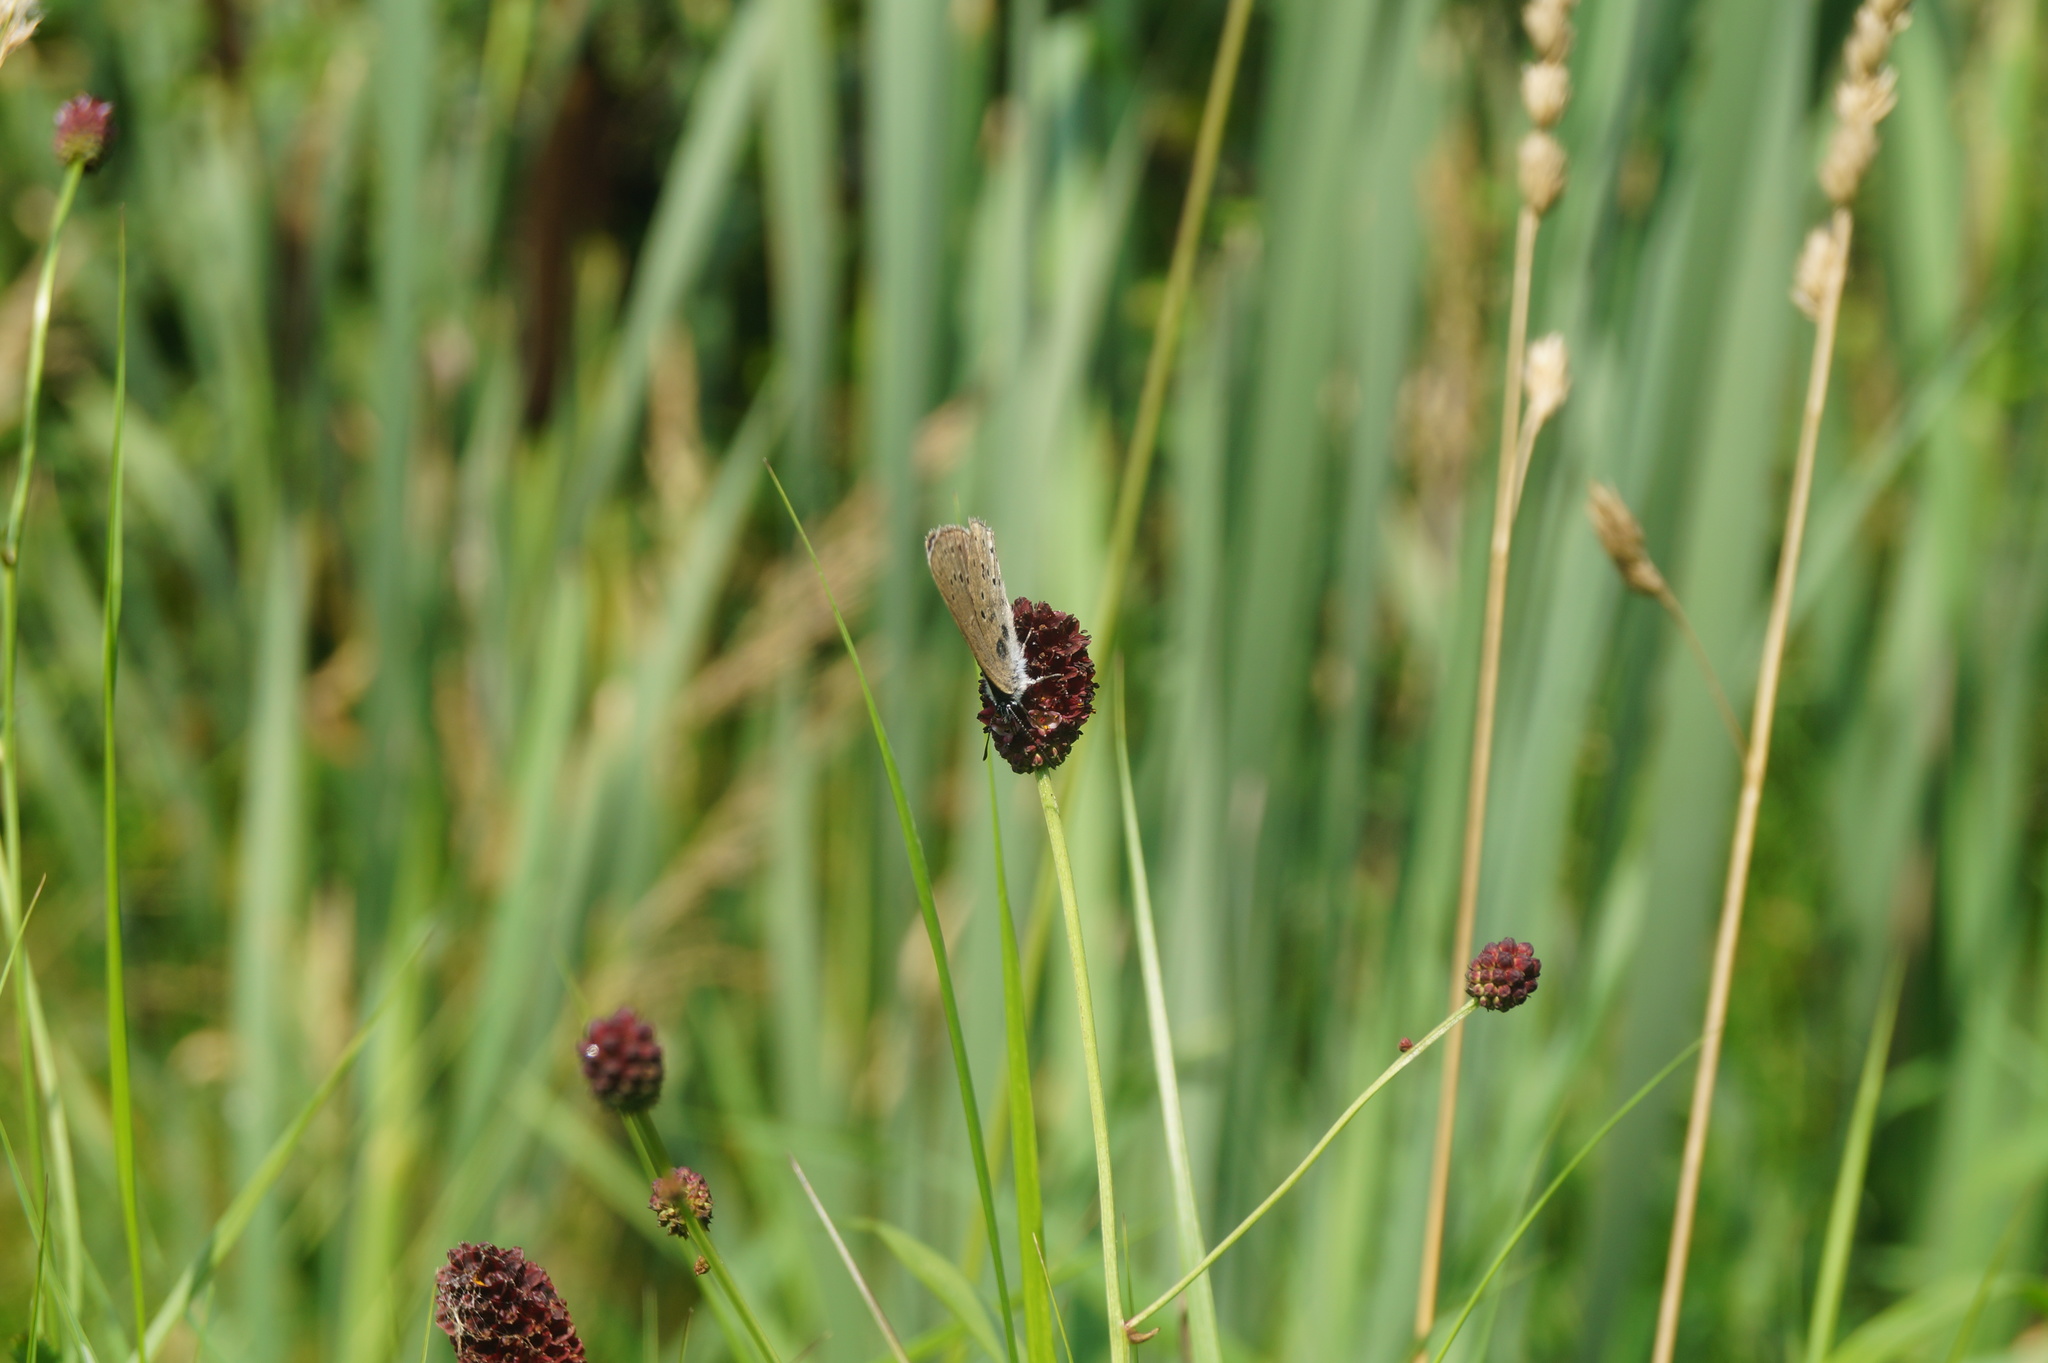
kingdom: Animalia
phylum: Arthropoda
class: Insecta
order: Lepidoptera
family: Lycaenidae
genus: Phengaris
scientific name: Phengaris teleius
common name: Scarce large blue
